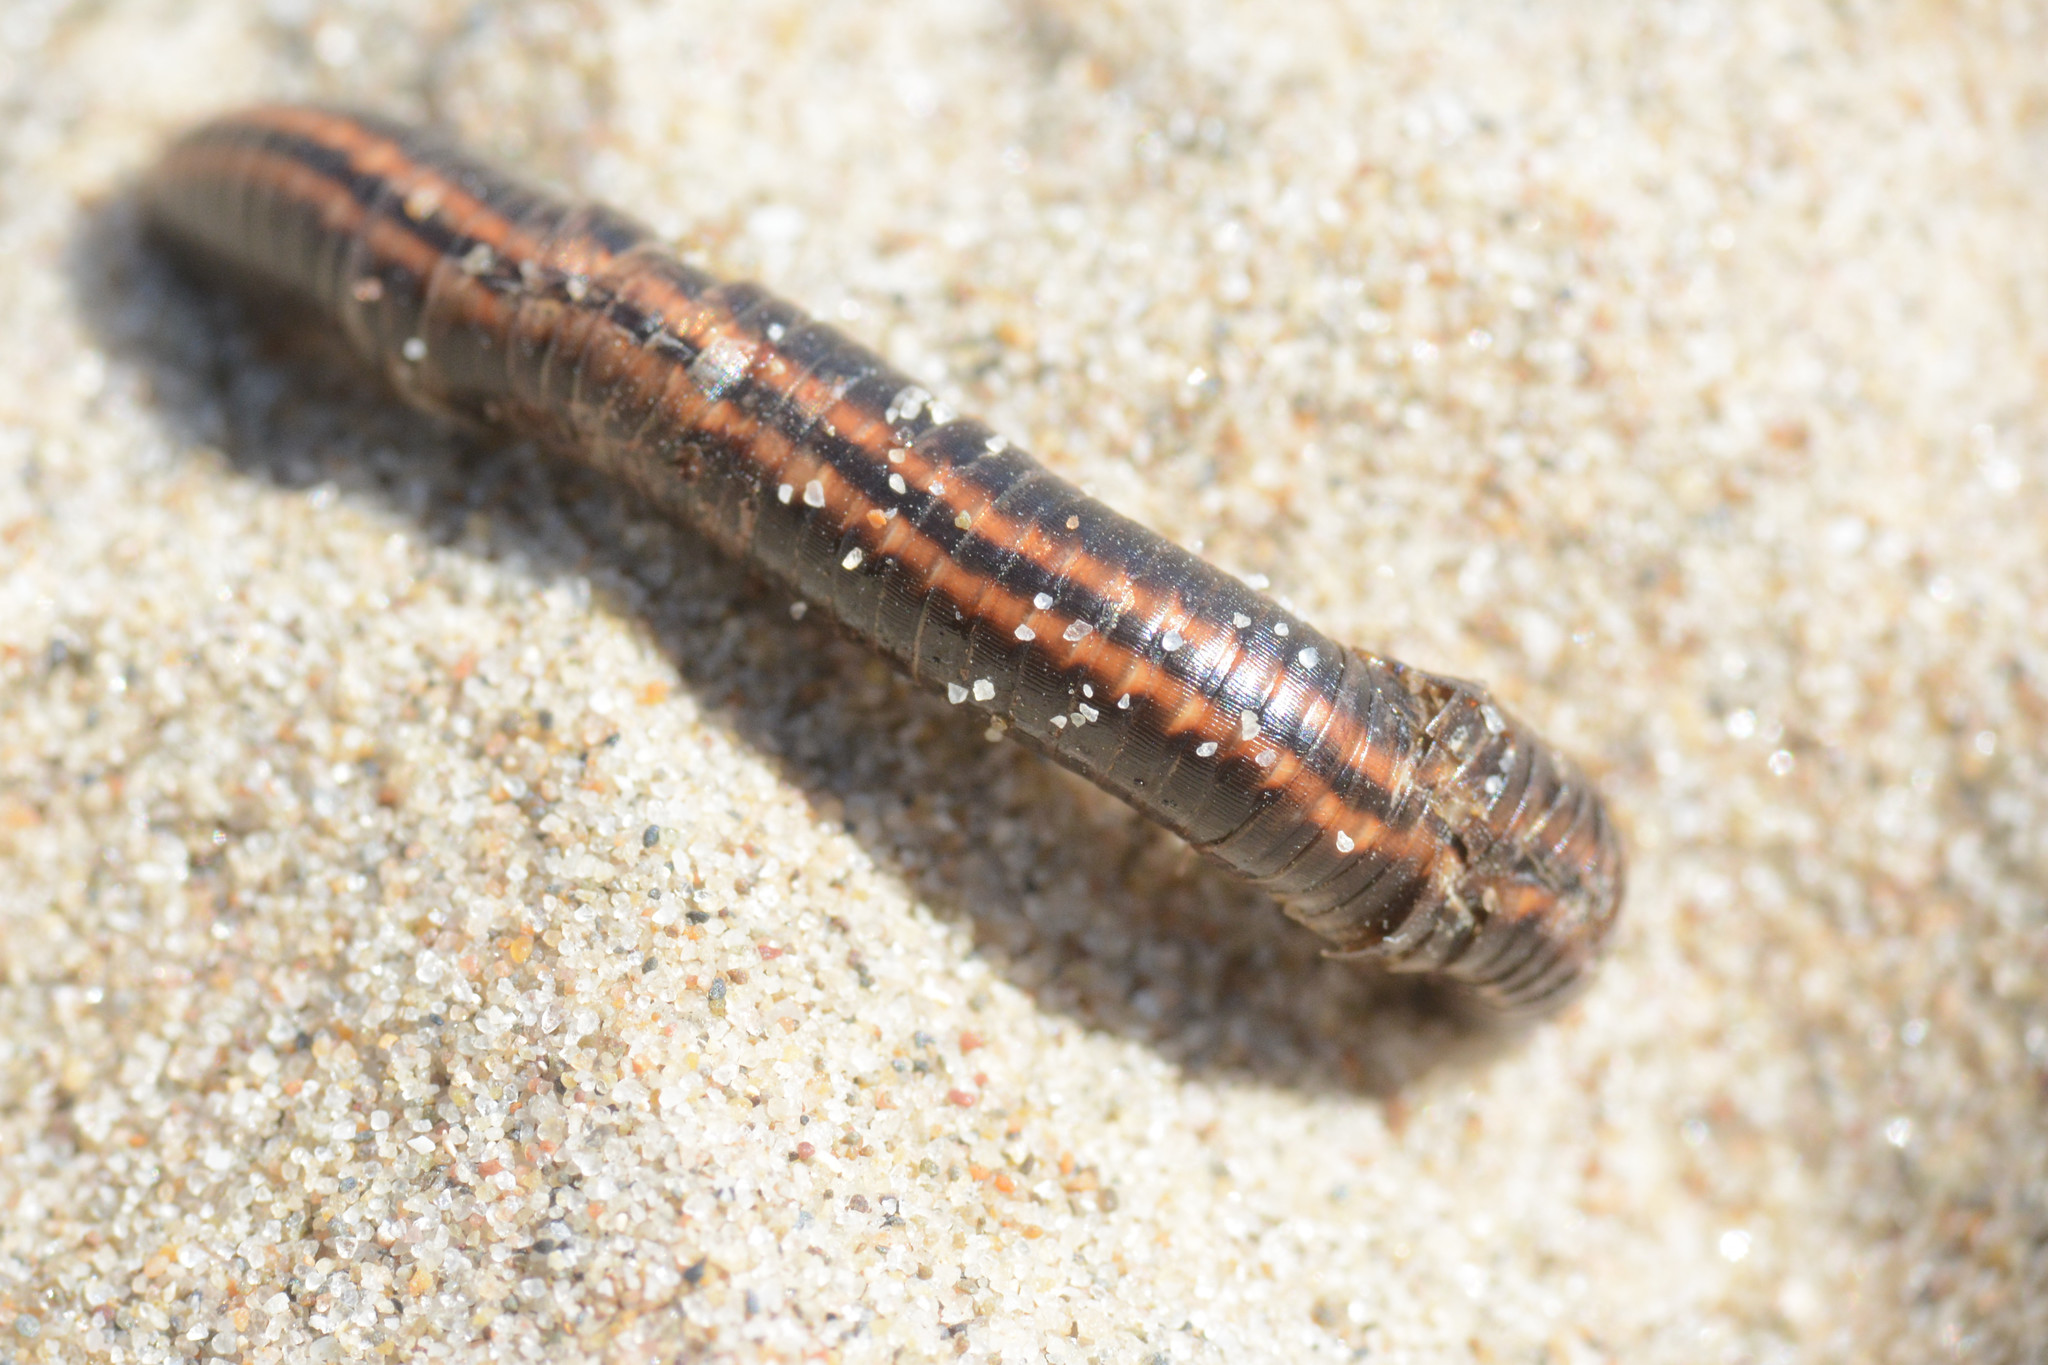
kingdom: Animalia
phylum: Arthropoda
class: Diplopoda
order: Julida
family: Julidae
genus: Ommatoiulus
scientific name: Ommatoiulus sabulosus
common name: Striped millipede
